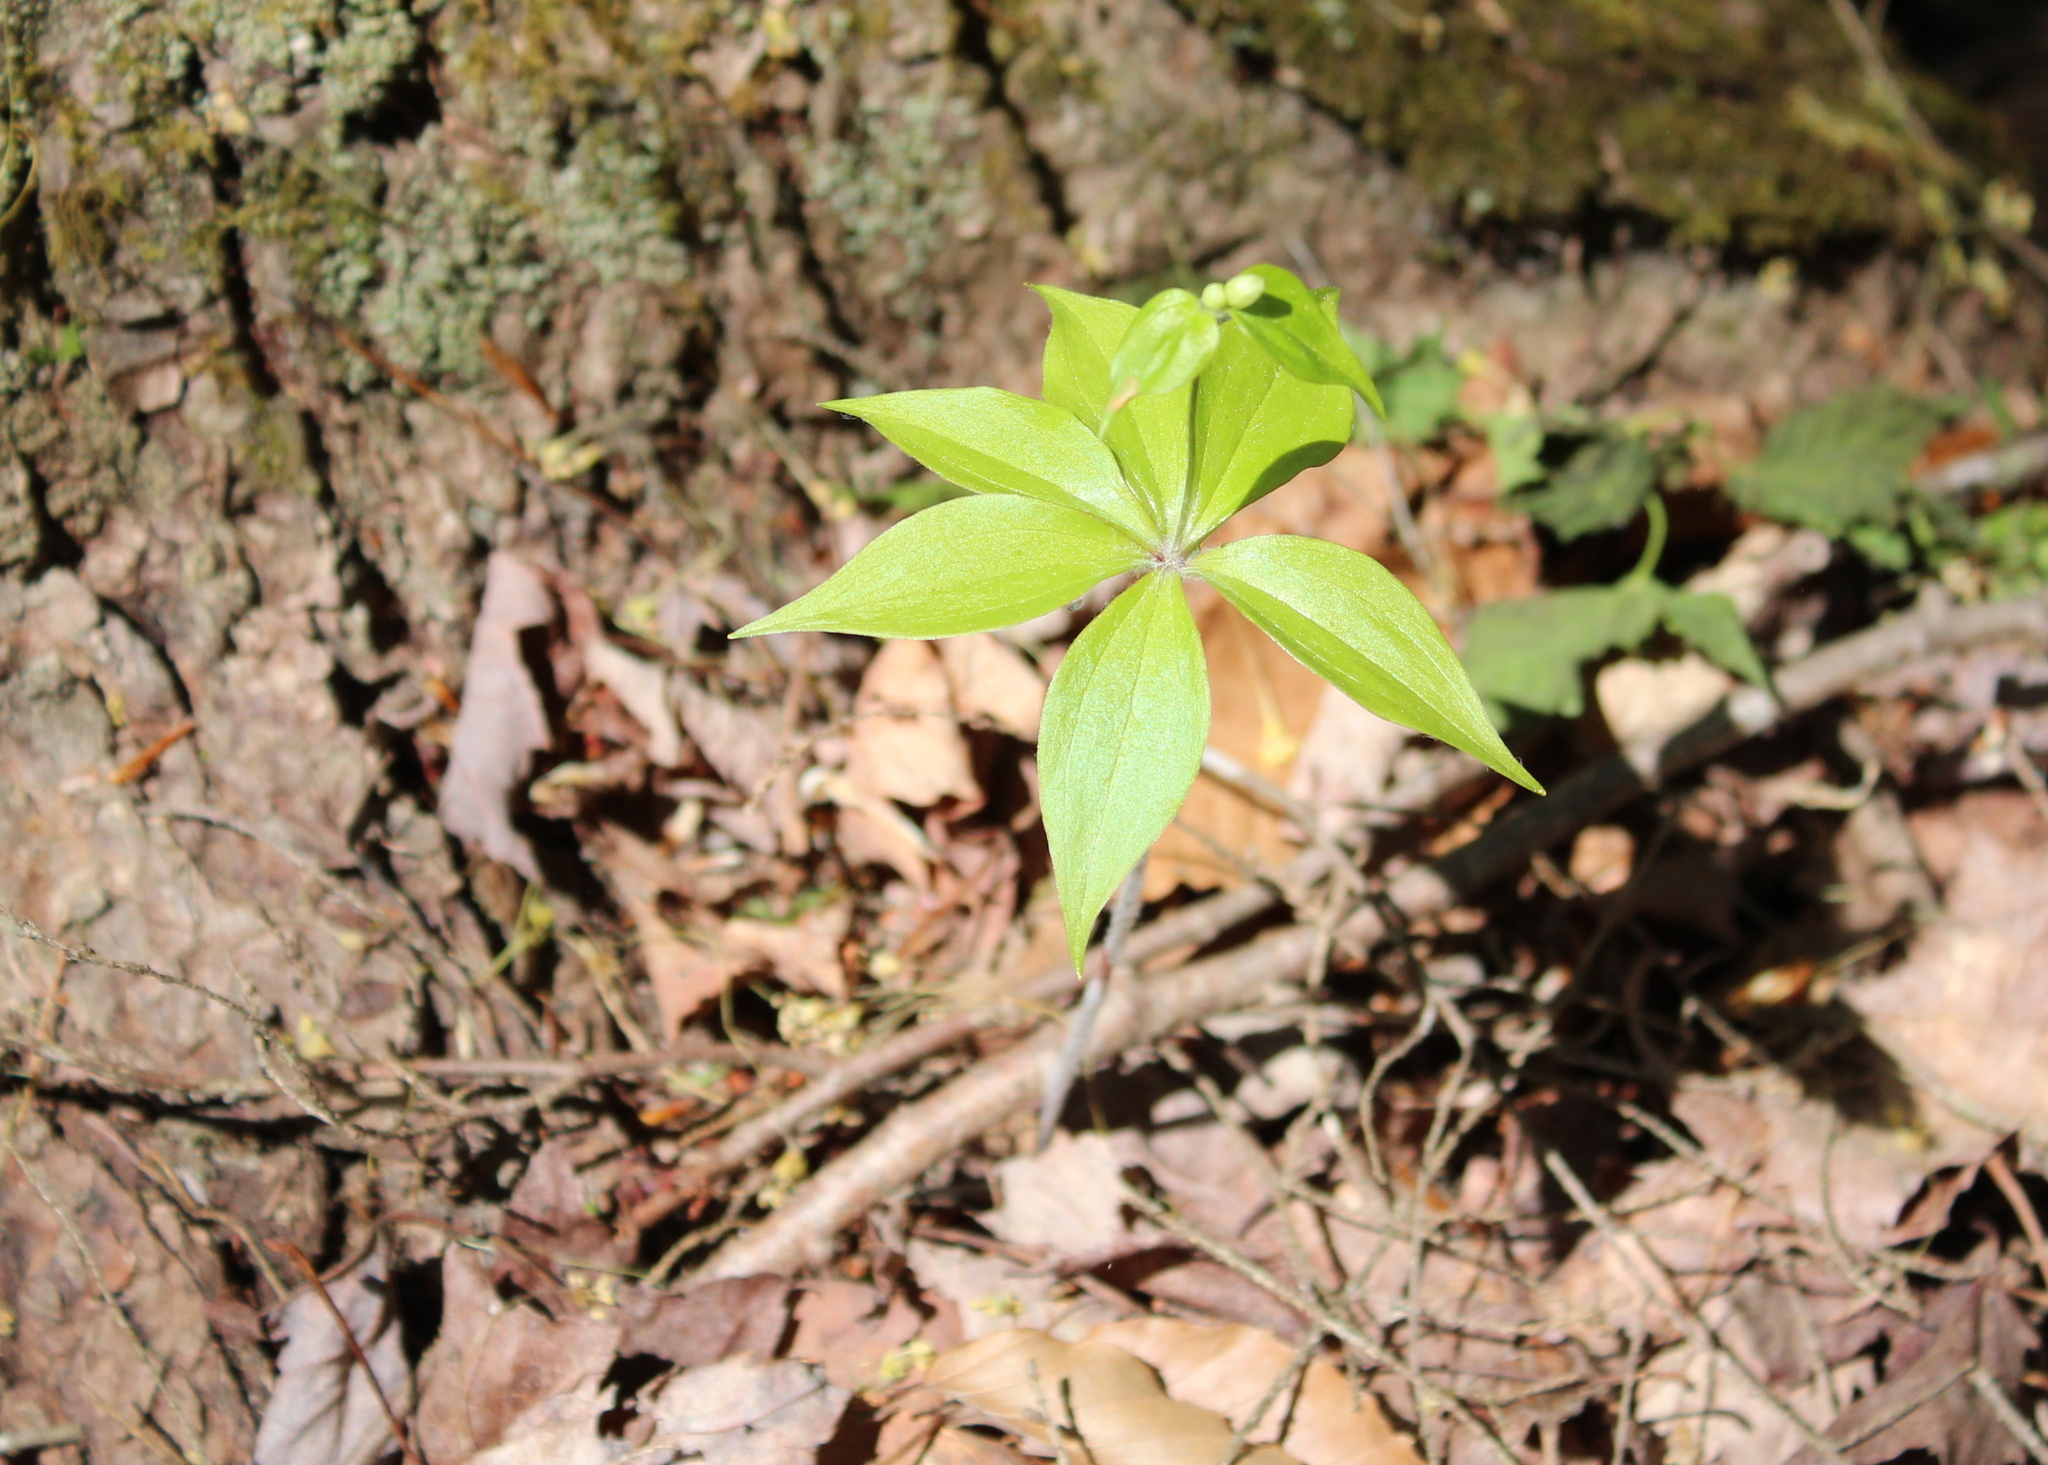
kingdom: Plantae
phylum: Tracheophyta
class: Liliopsida
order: Liliales
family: Liliaceae
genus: Medeola
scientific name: Medeola virginiana
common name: Indian cucumber-root
